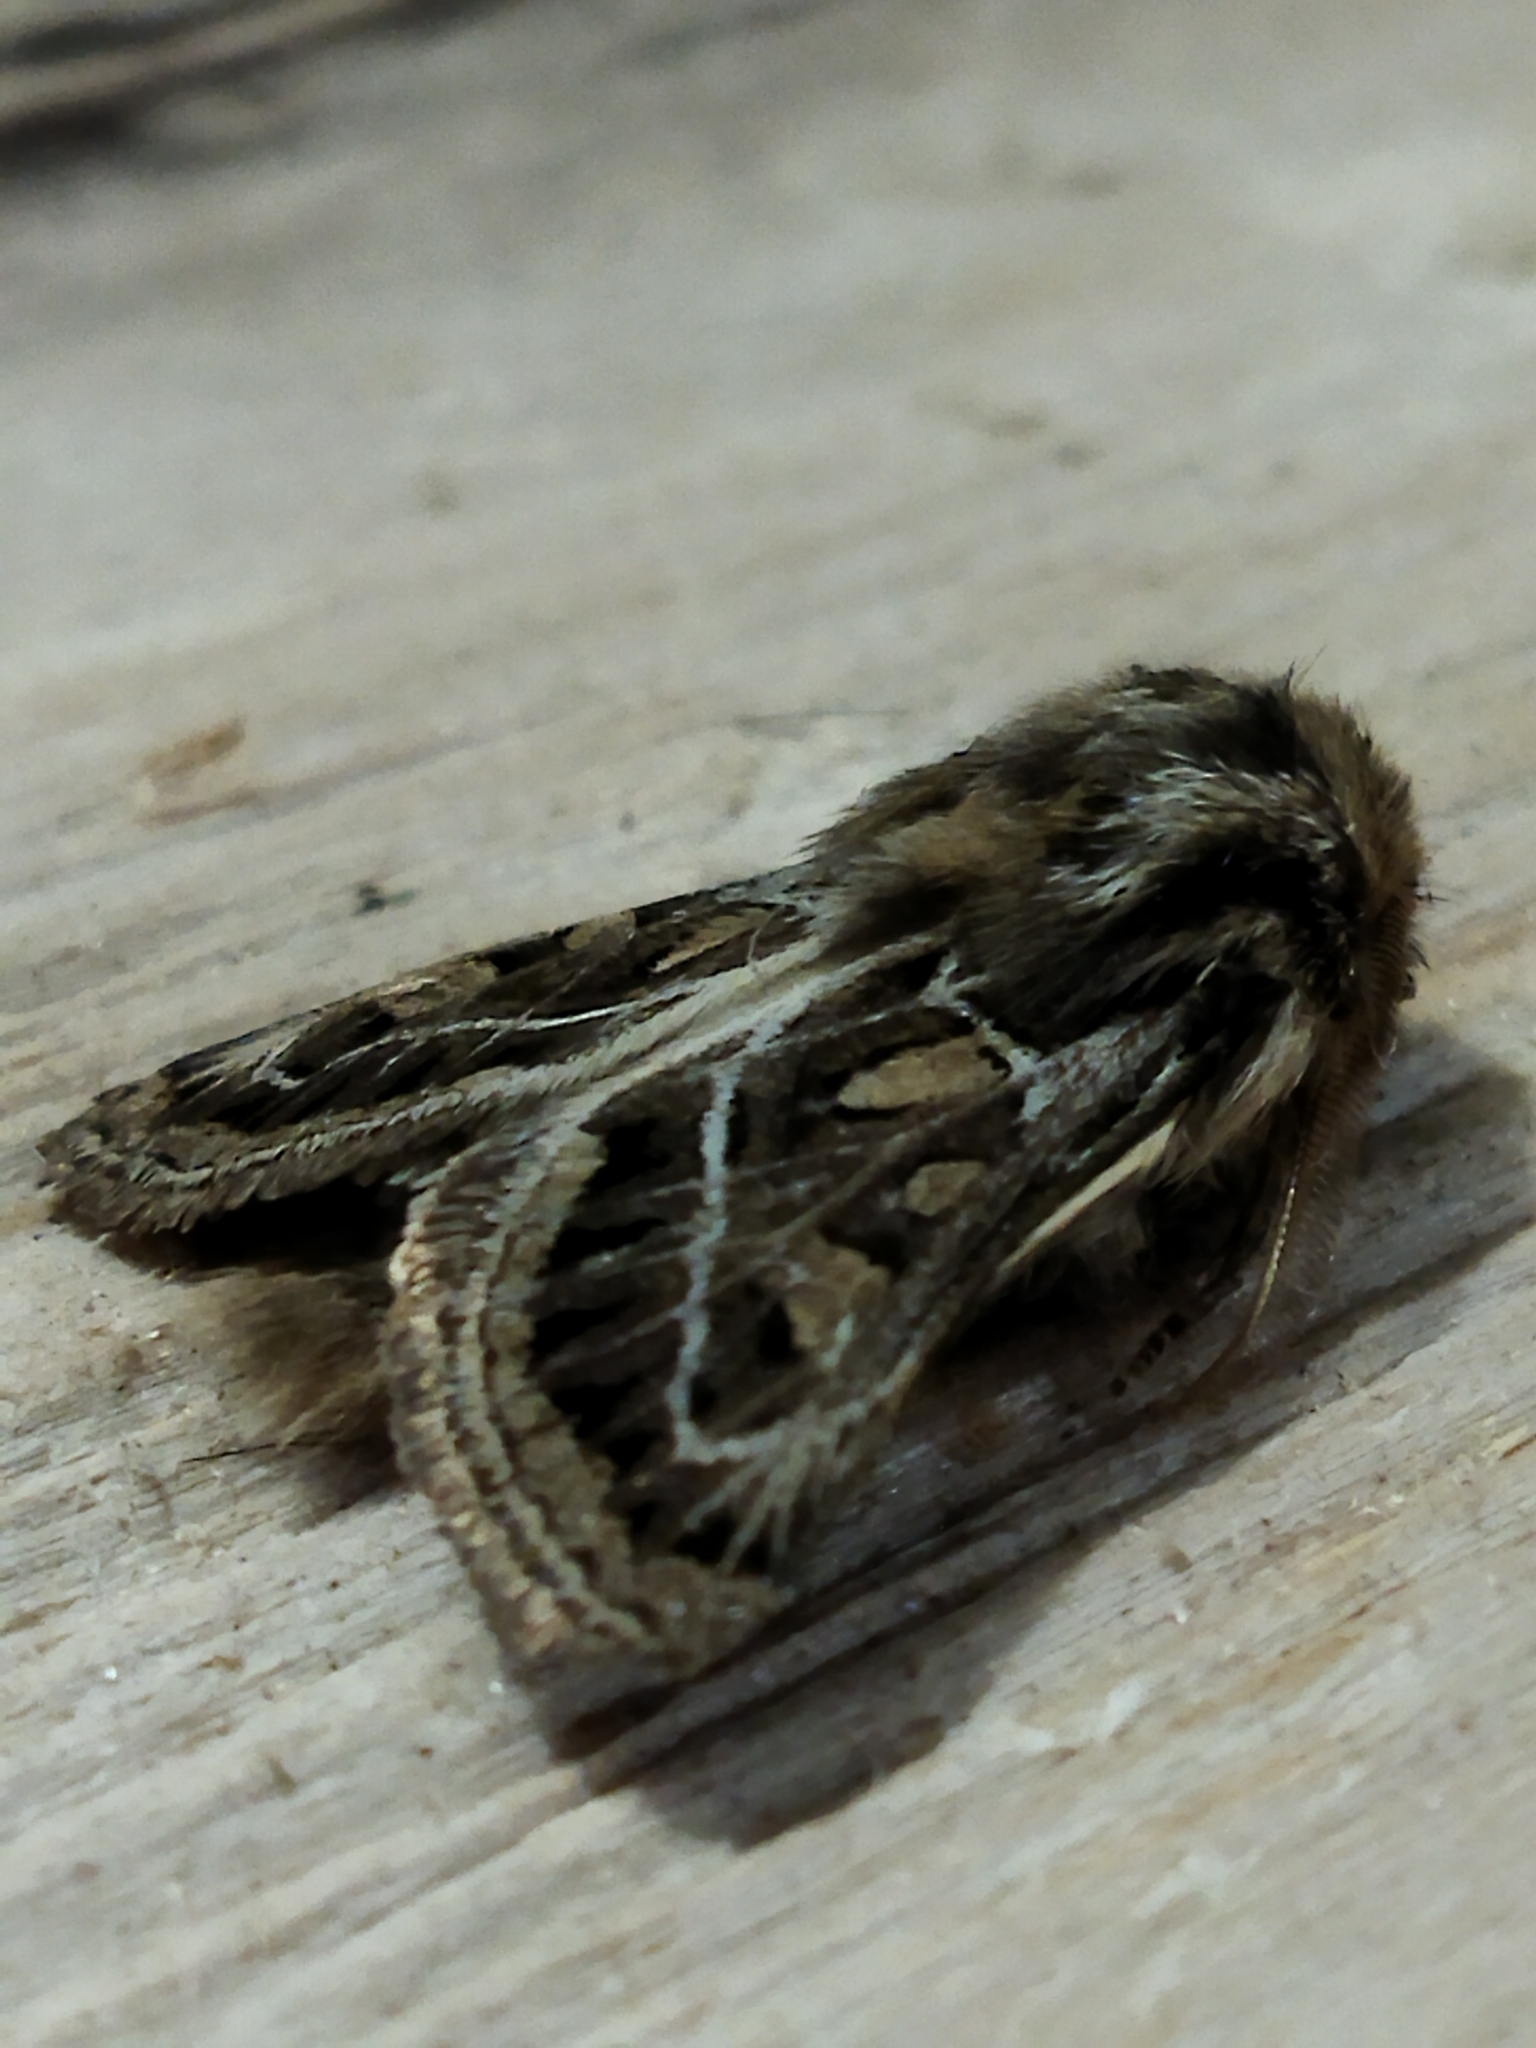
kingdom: Animalia
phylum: Arthropoda
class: Insecta
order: Lepidoptera
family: Noctuidae
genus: Ulochlaena
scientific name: Ulochlaena hirta
